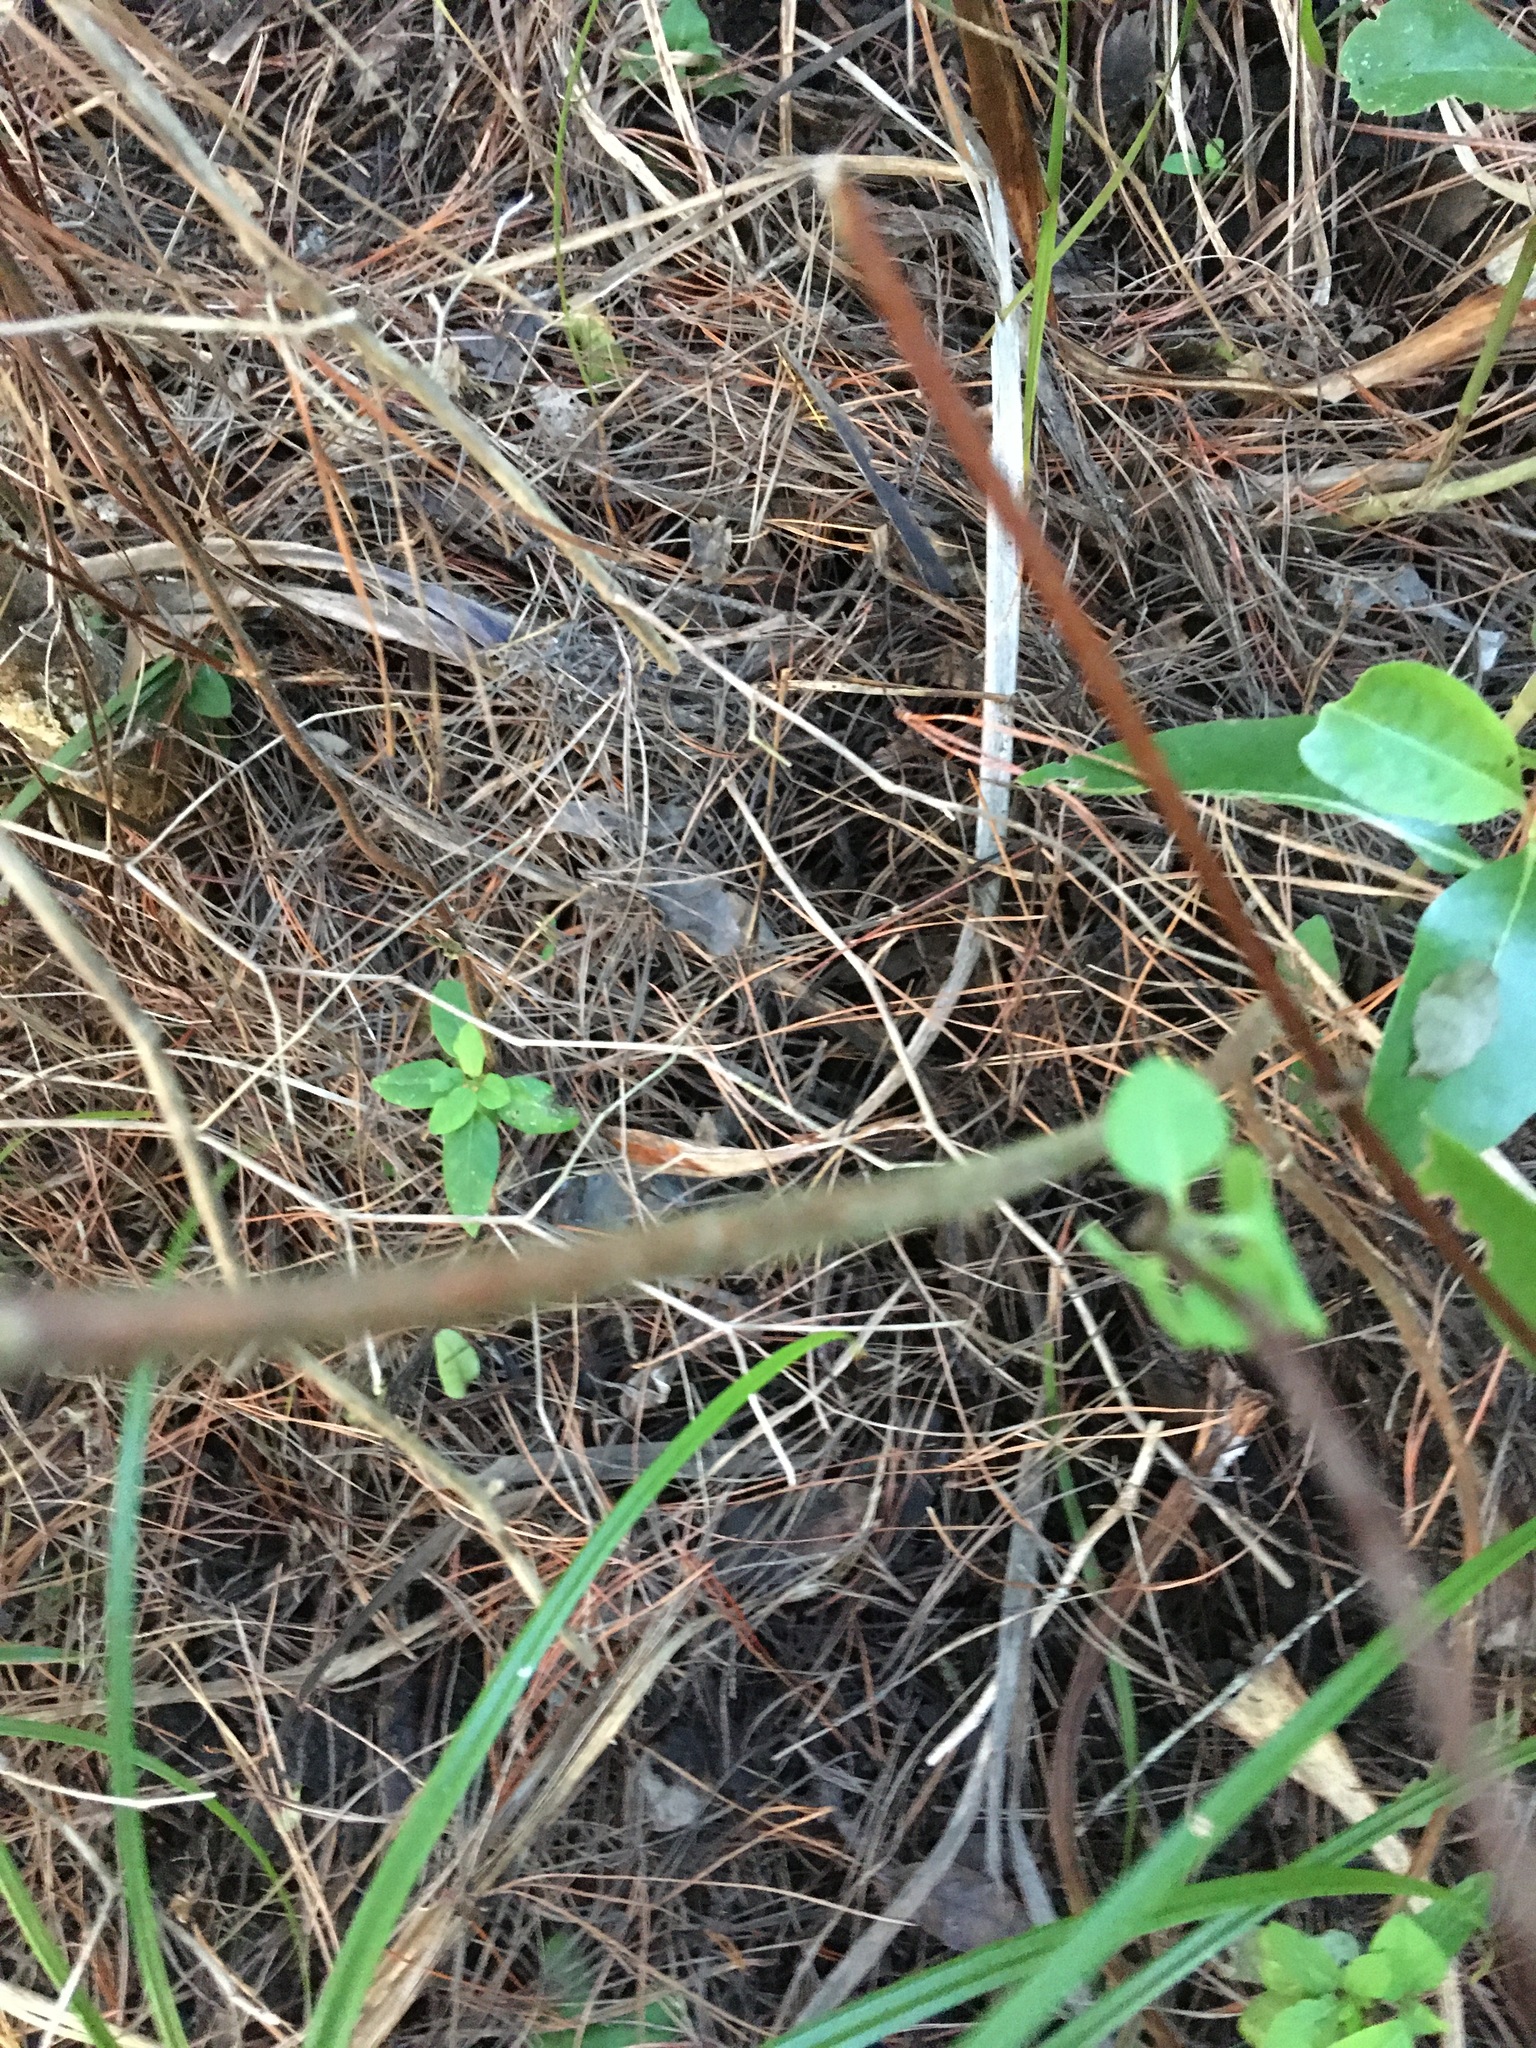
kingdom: Plantae
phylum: Tracheophyta
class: Magnoliopsida
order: Dipsacales
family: Caprifoliaceae
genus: Lonicera
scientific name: Lonicera japonica
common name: Japanese honeysuckle
